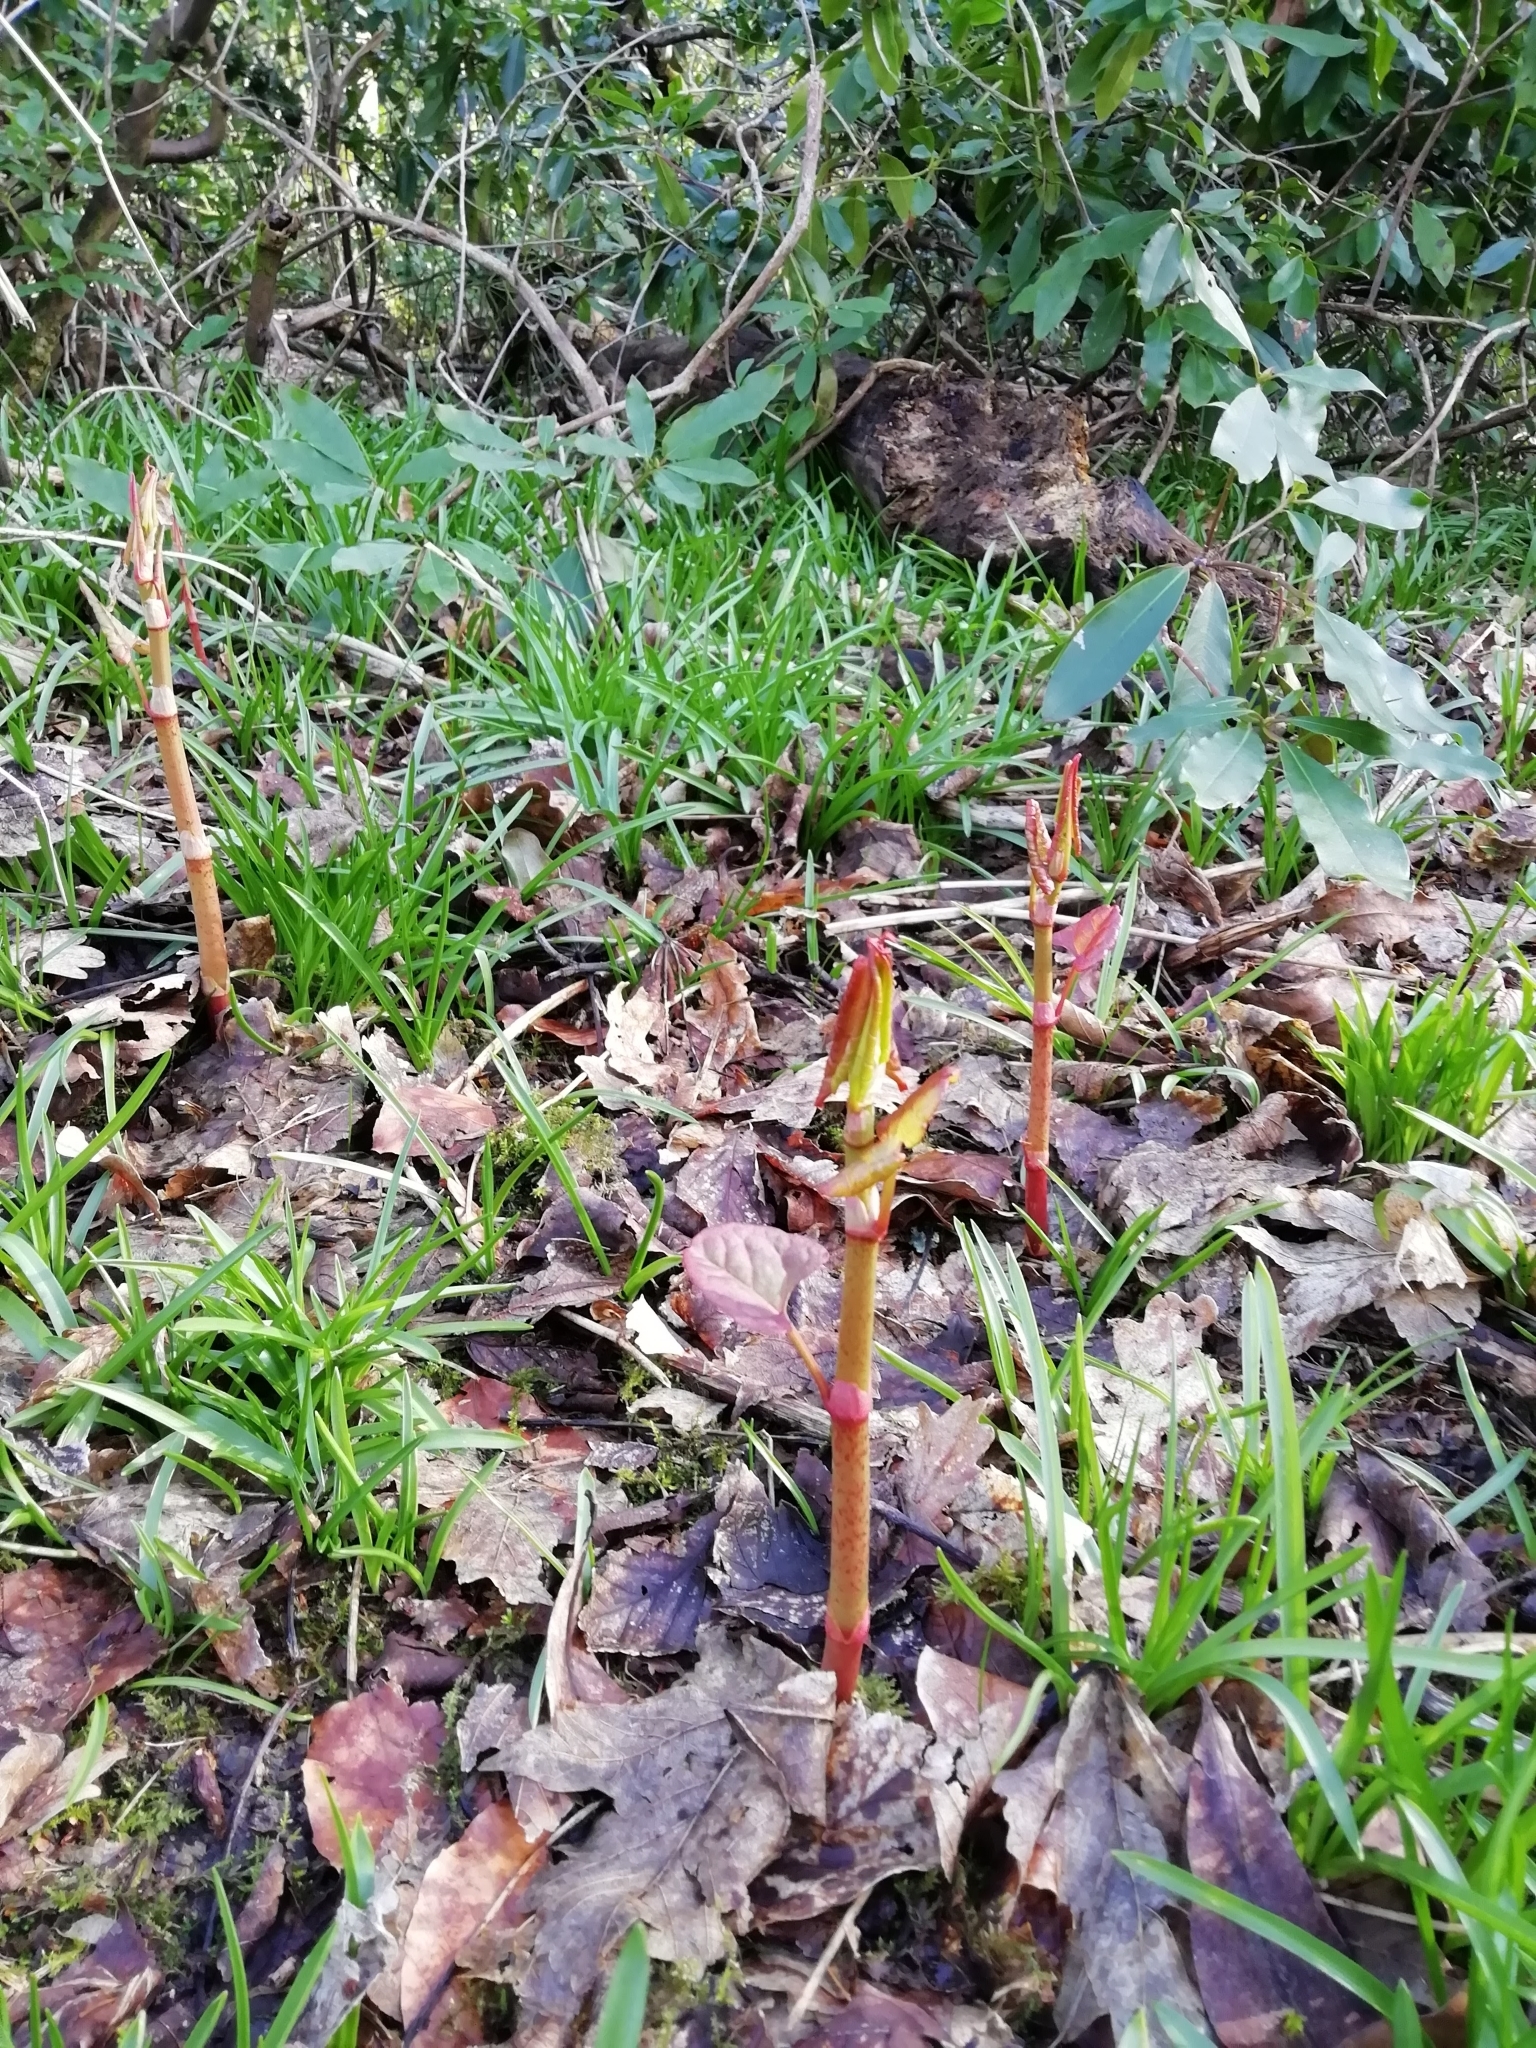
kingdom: Plantae
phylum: Tracheophyta
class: Magnoliopsida
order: Caryophyllales
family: Polygonaceae
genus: Reynoutria
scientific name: Reynoutria
